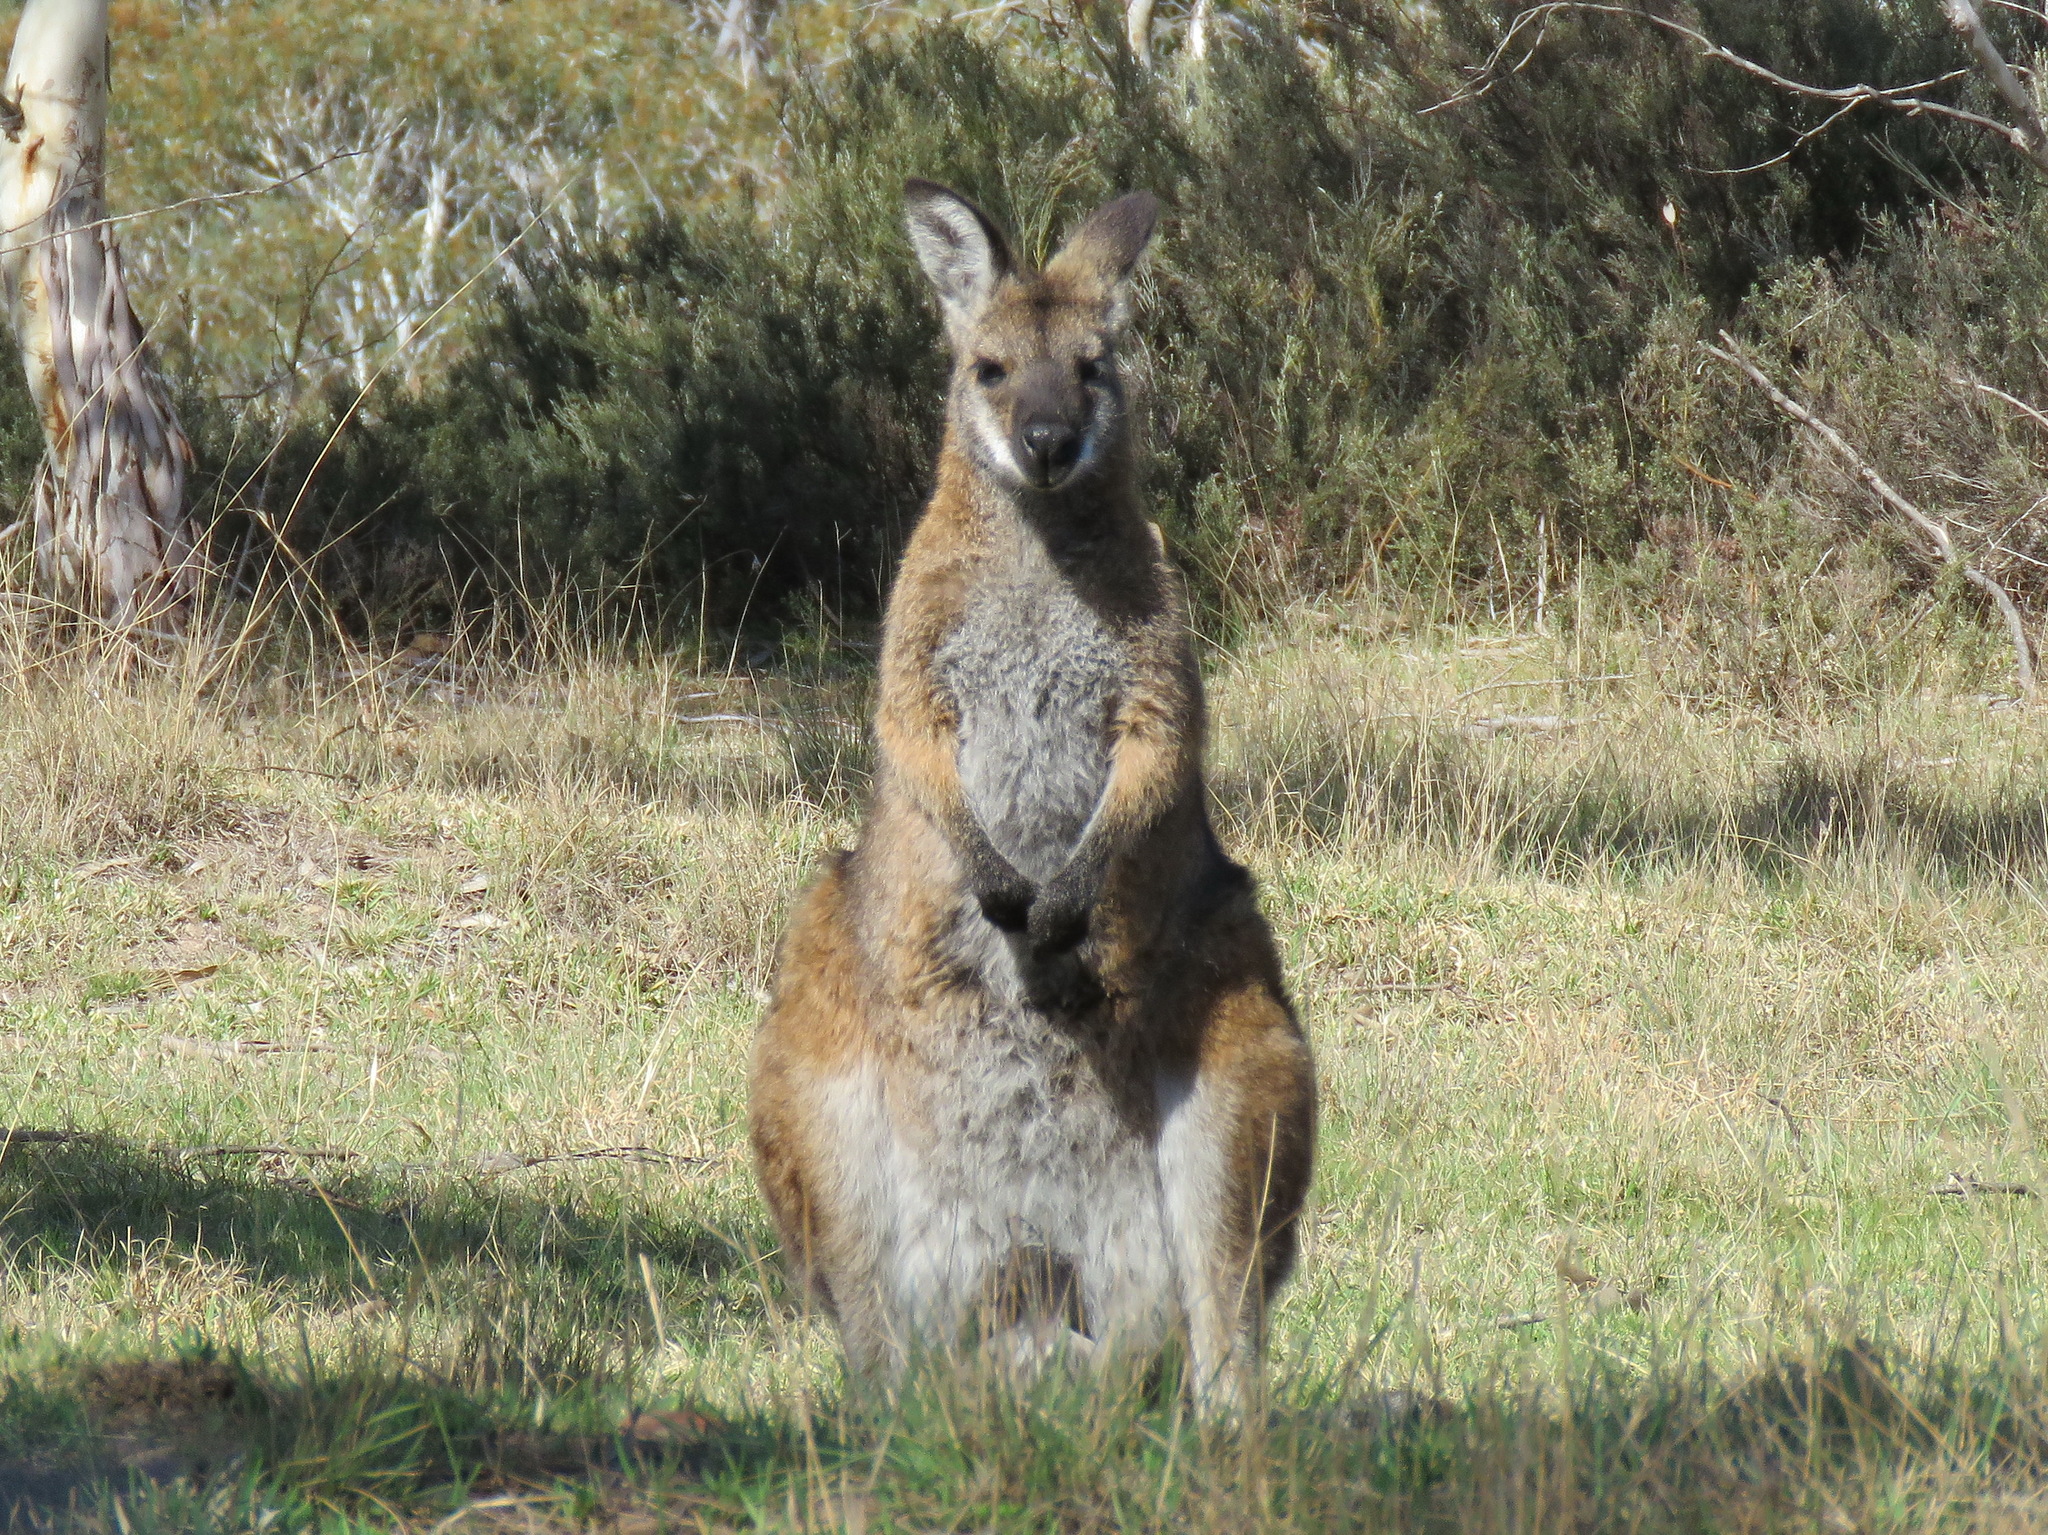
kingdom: Animalia
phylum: Chordata
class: Mammalia
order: Diprotodontia
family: Macropodidae
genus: Notamacropus
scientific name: Notamacropus rufogriseus
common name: Red-necked wallaby
